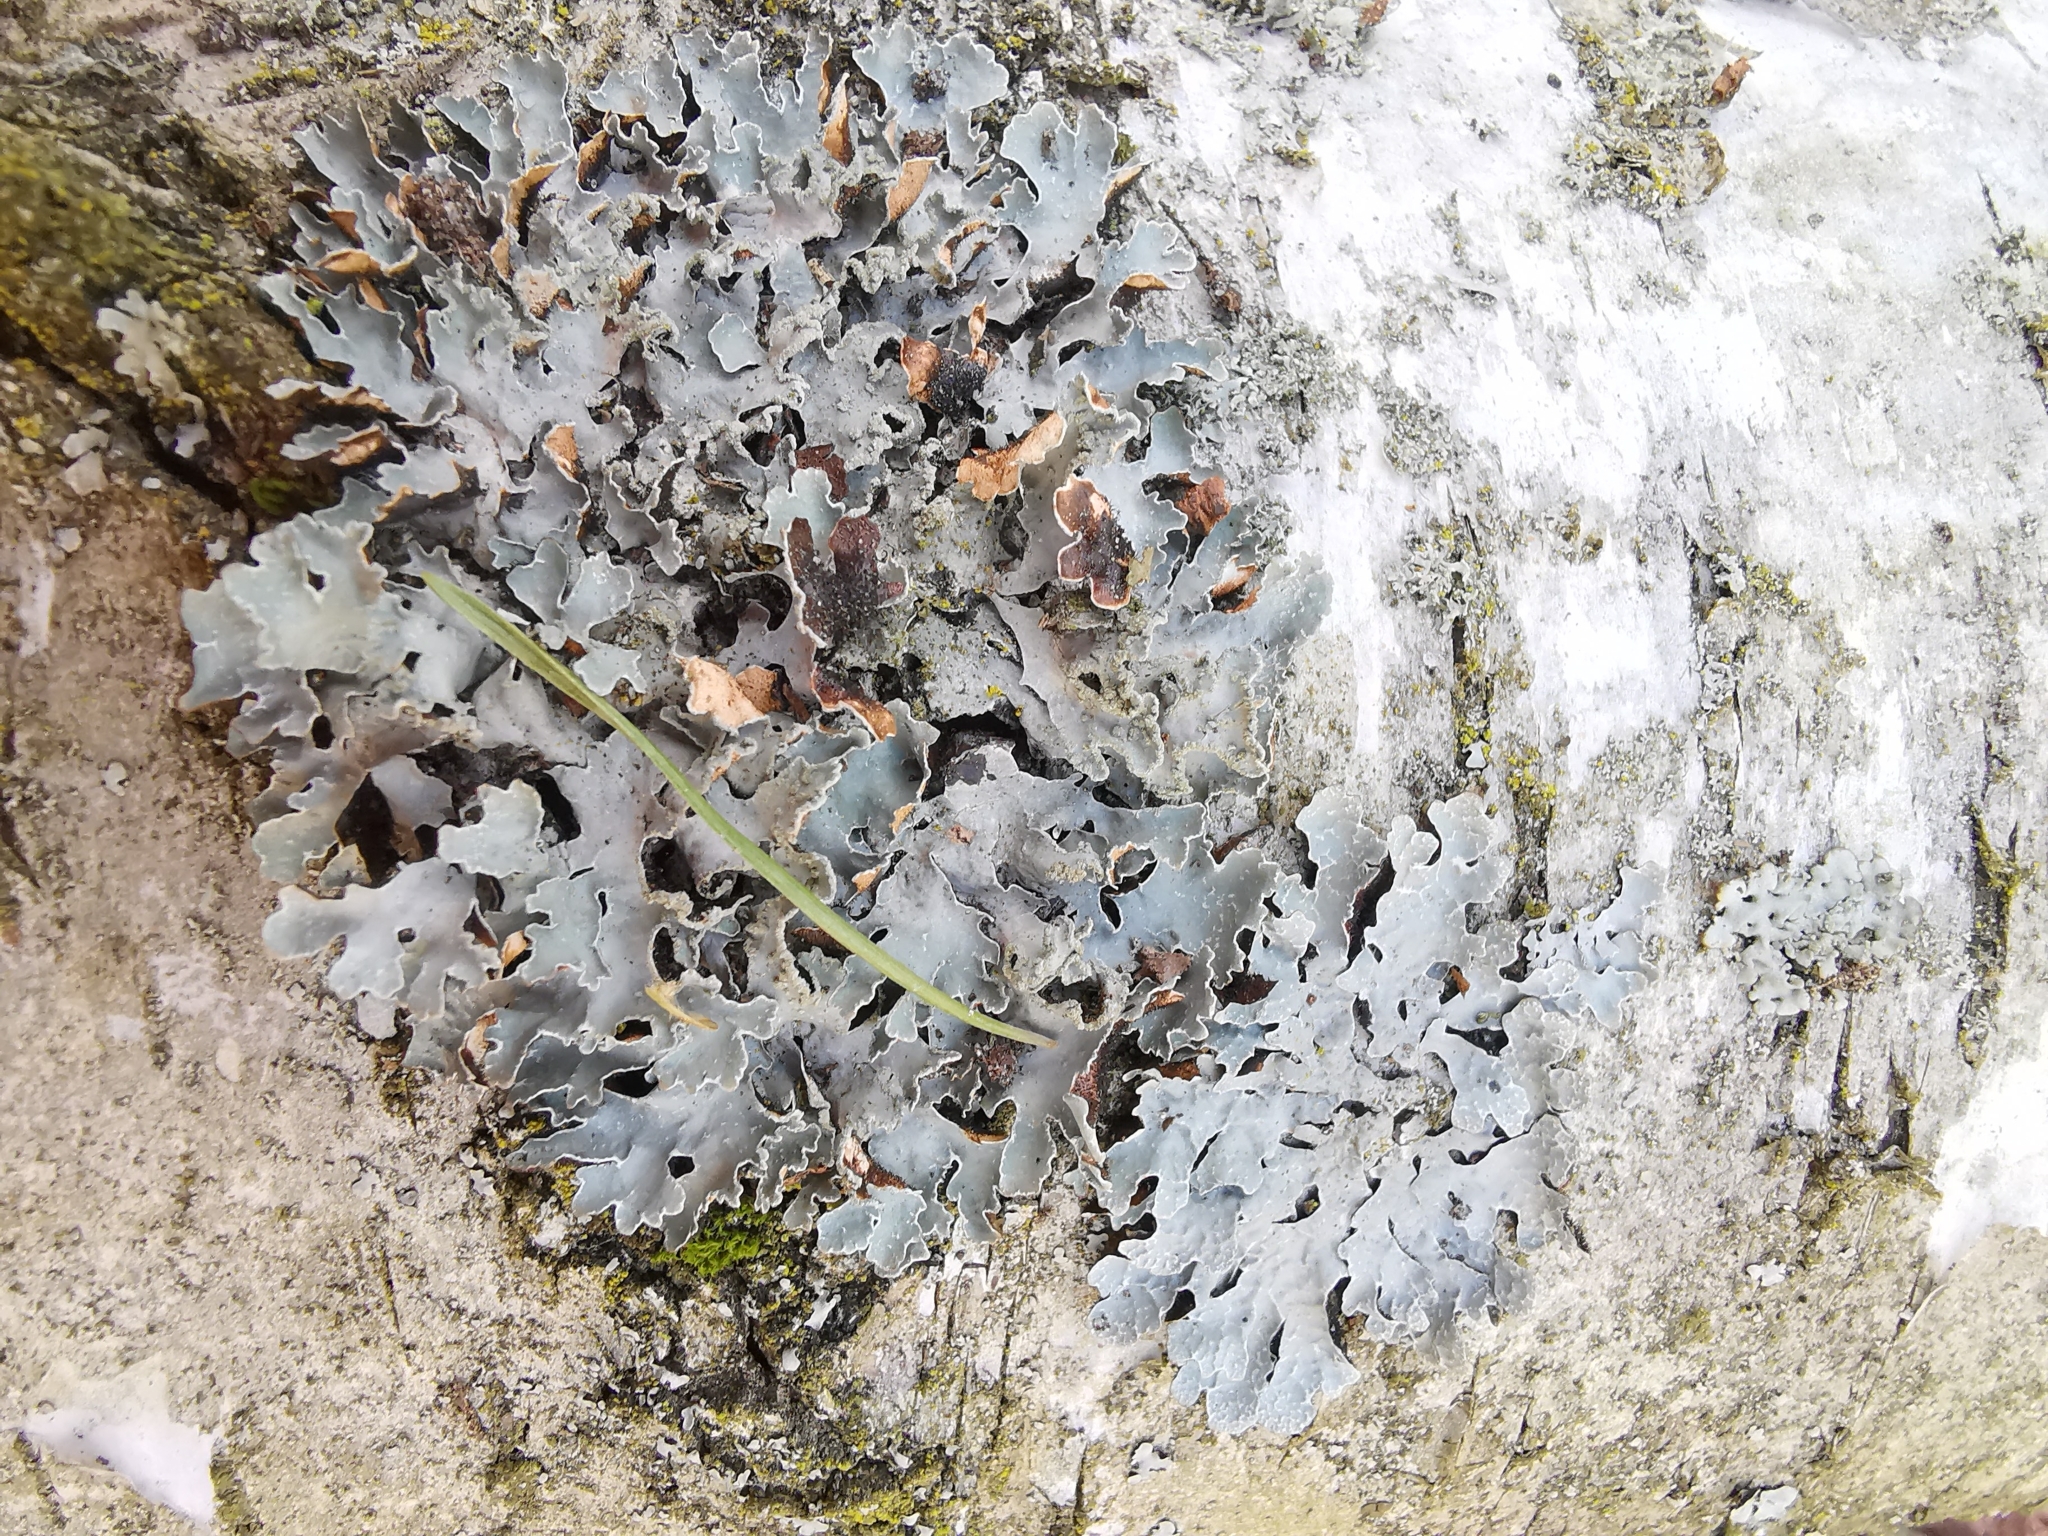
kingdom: Fungi
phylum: Ascomycota
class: Lecanoromycetes
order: Lecanorales
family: Parmeliaceae
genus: Parmelia
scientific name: Parmelia sulcata
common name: Netted shield lichen
